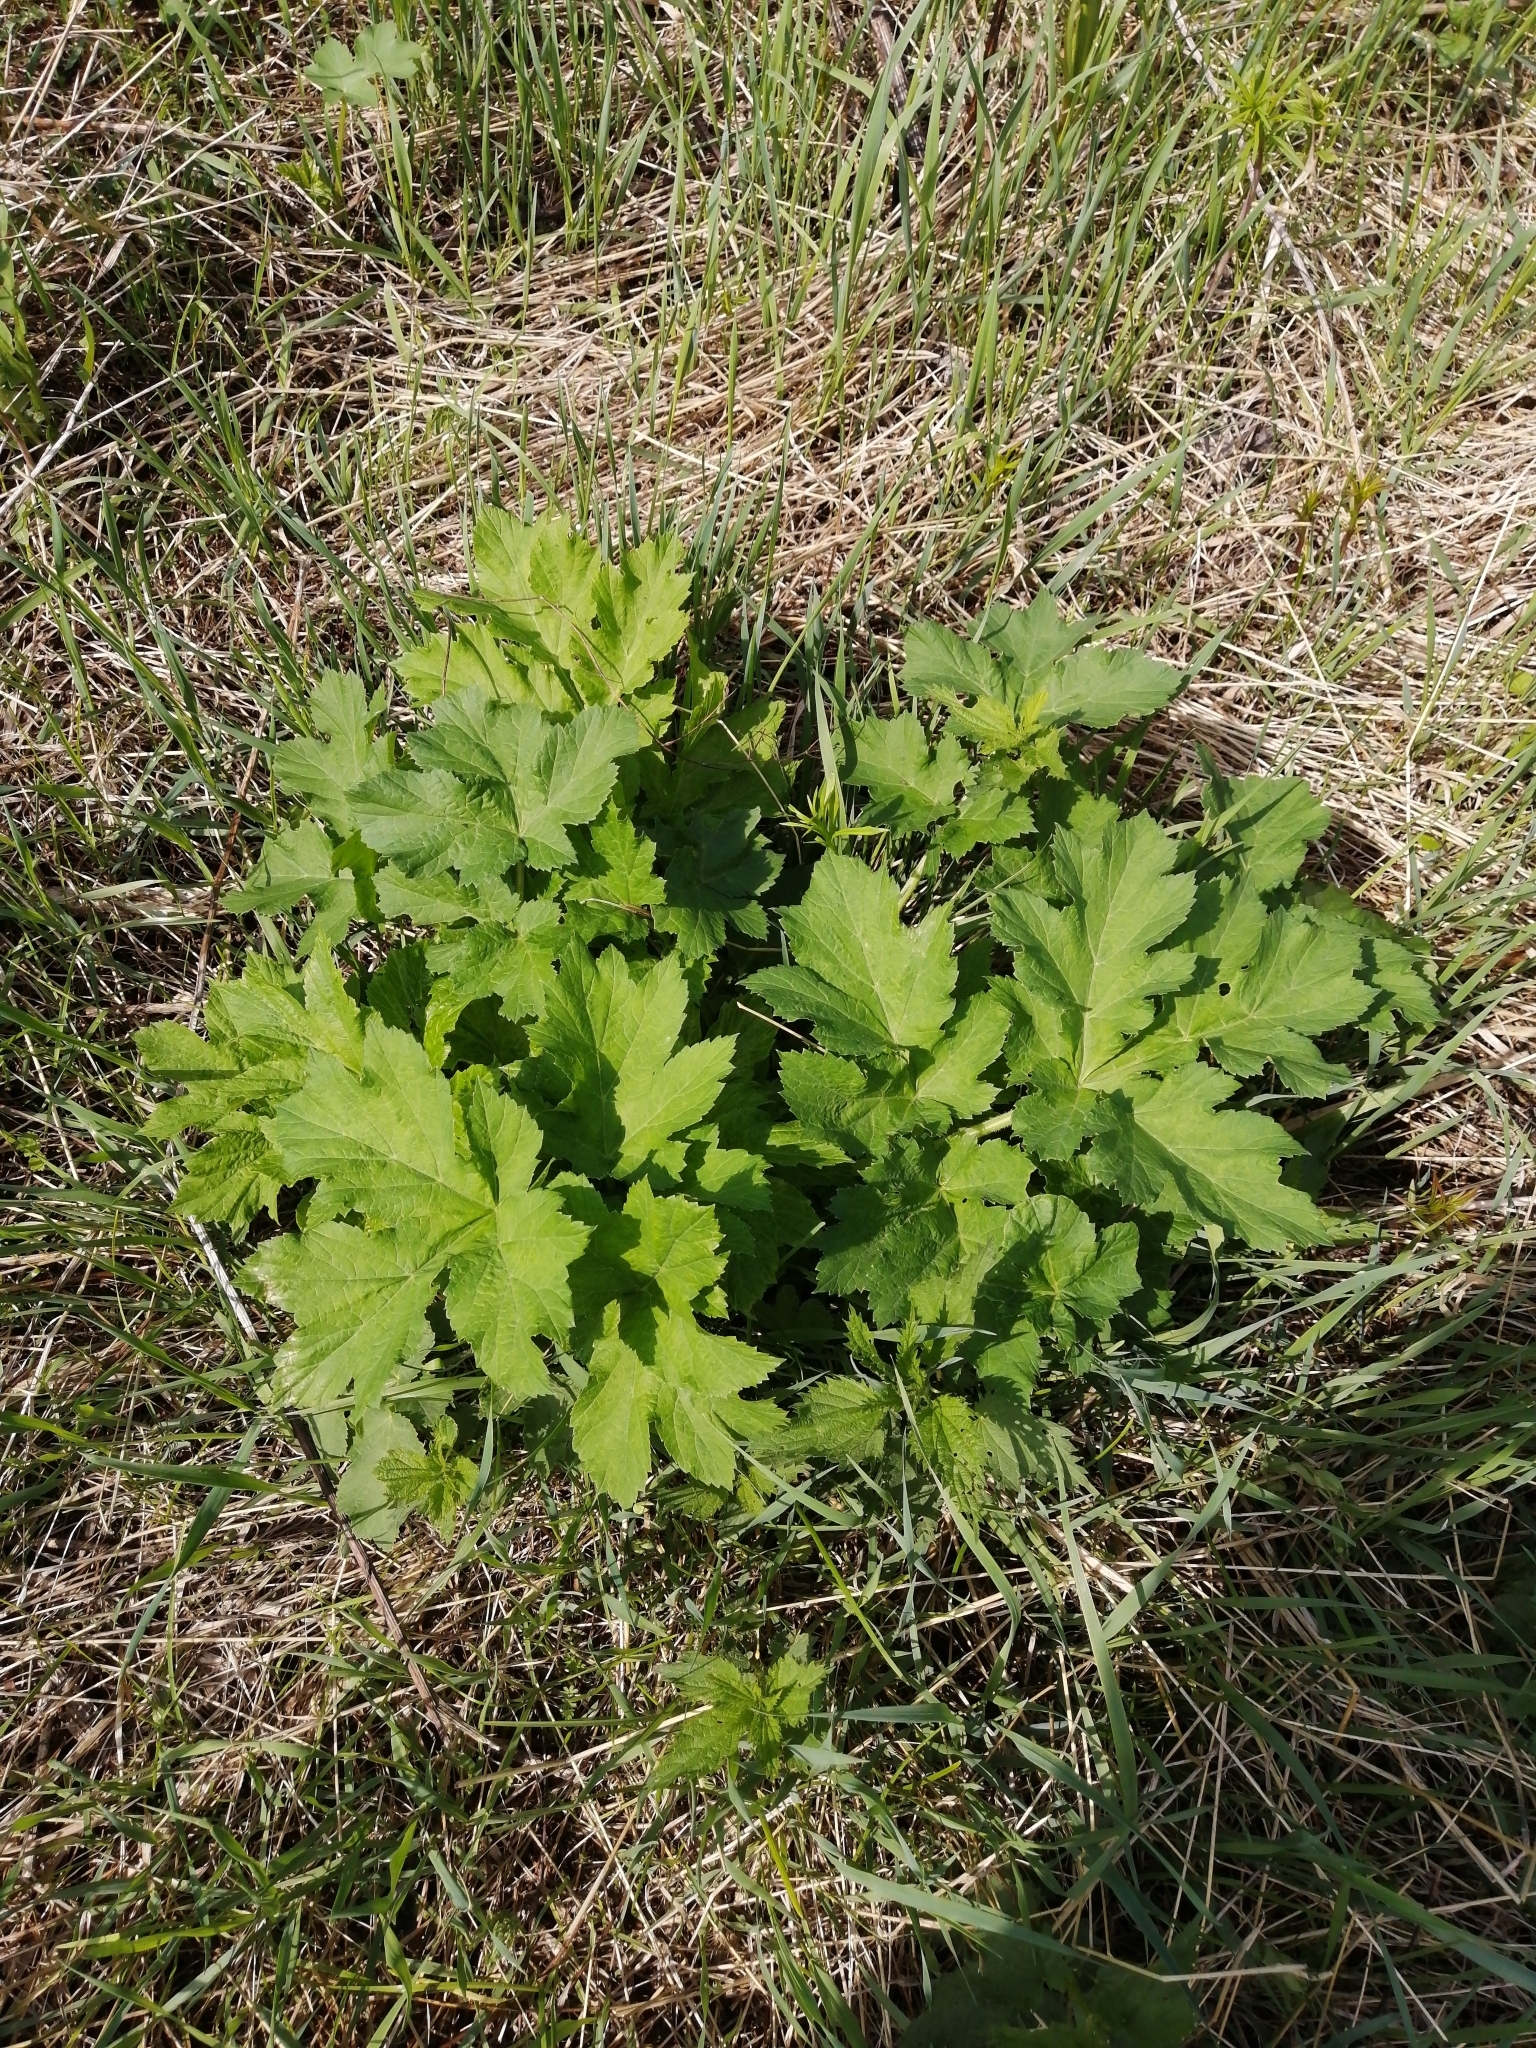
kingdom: Plantae
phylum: Tracheophyta
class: Magnoliopsida
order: Apiales
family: Apiaceae
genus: Heracleum
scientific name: Heracleum dissectum
